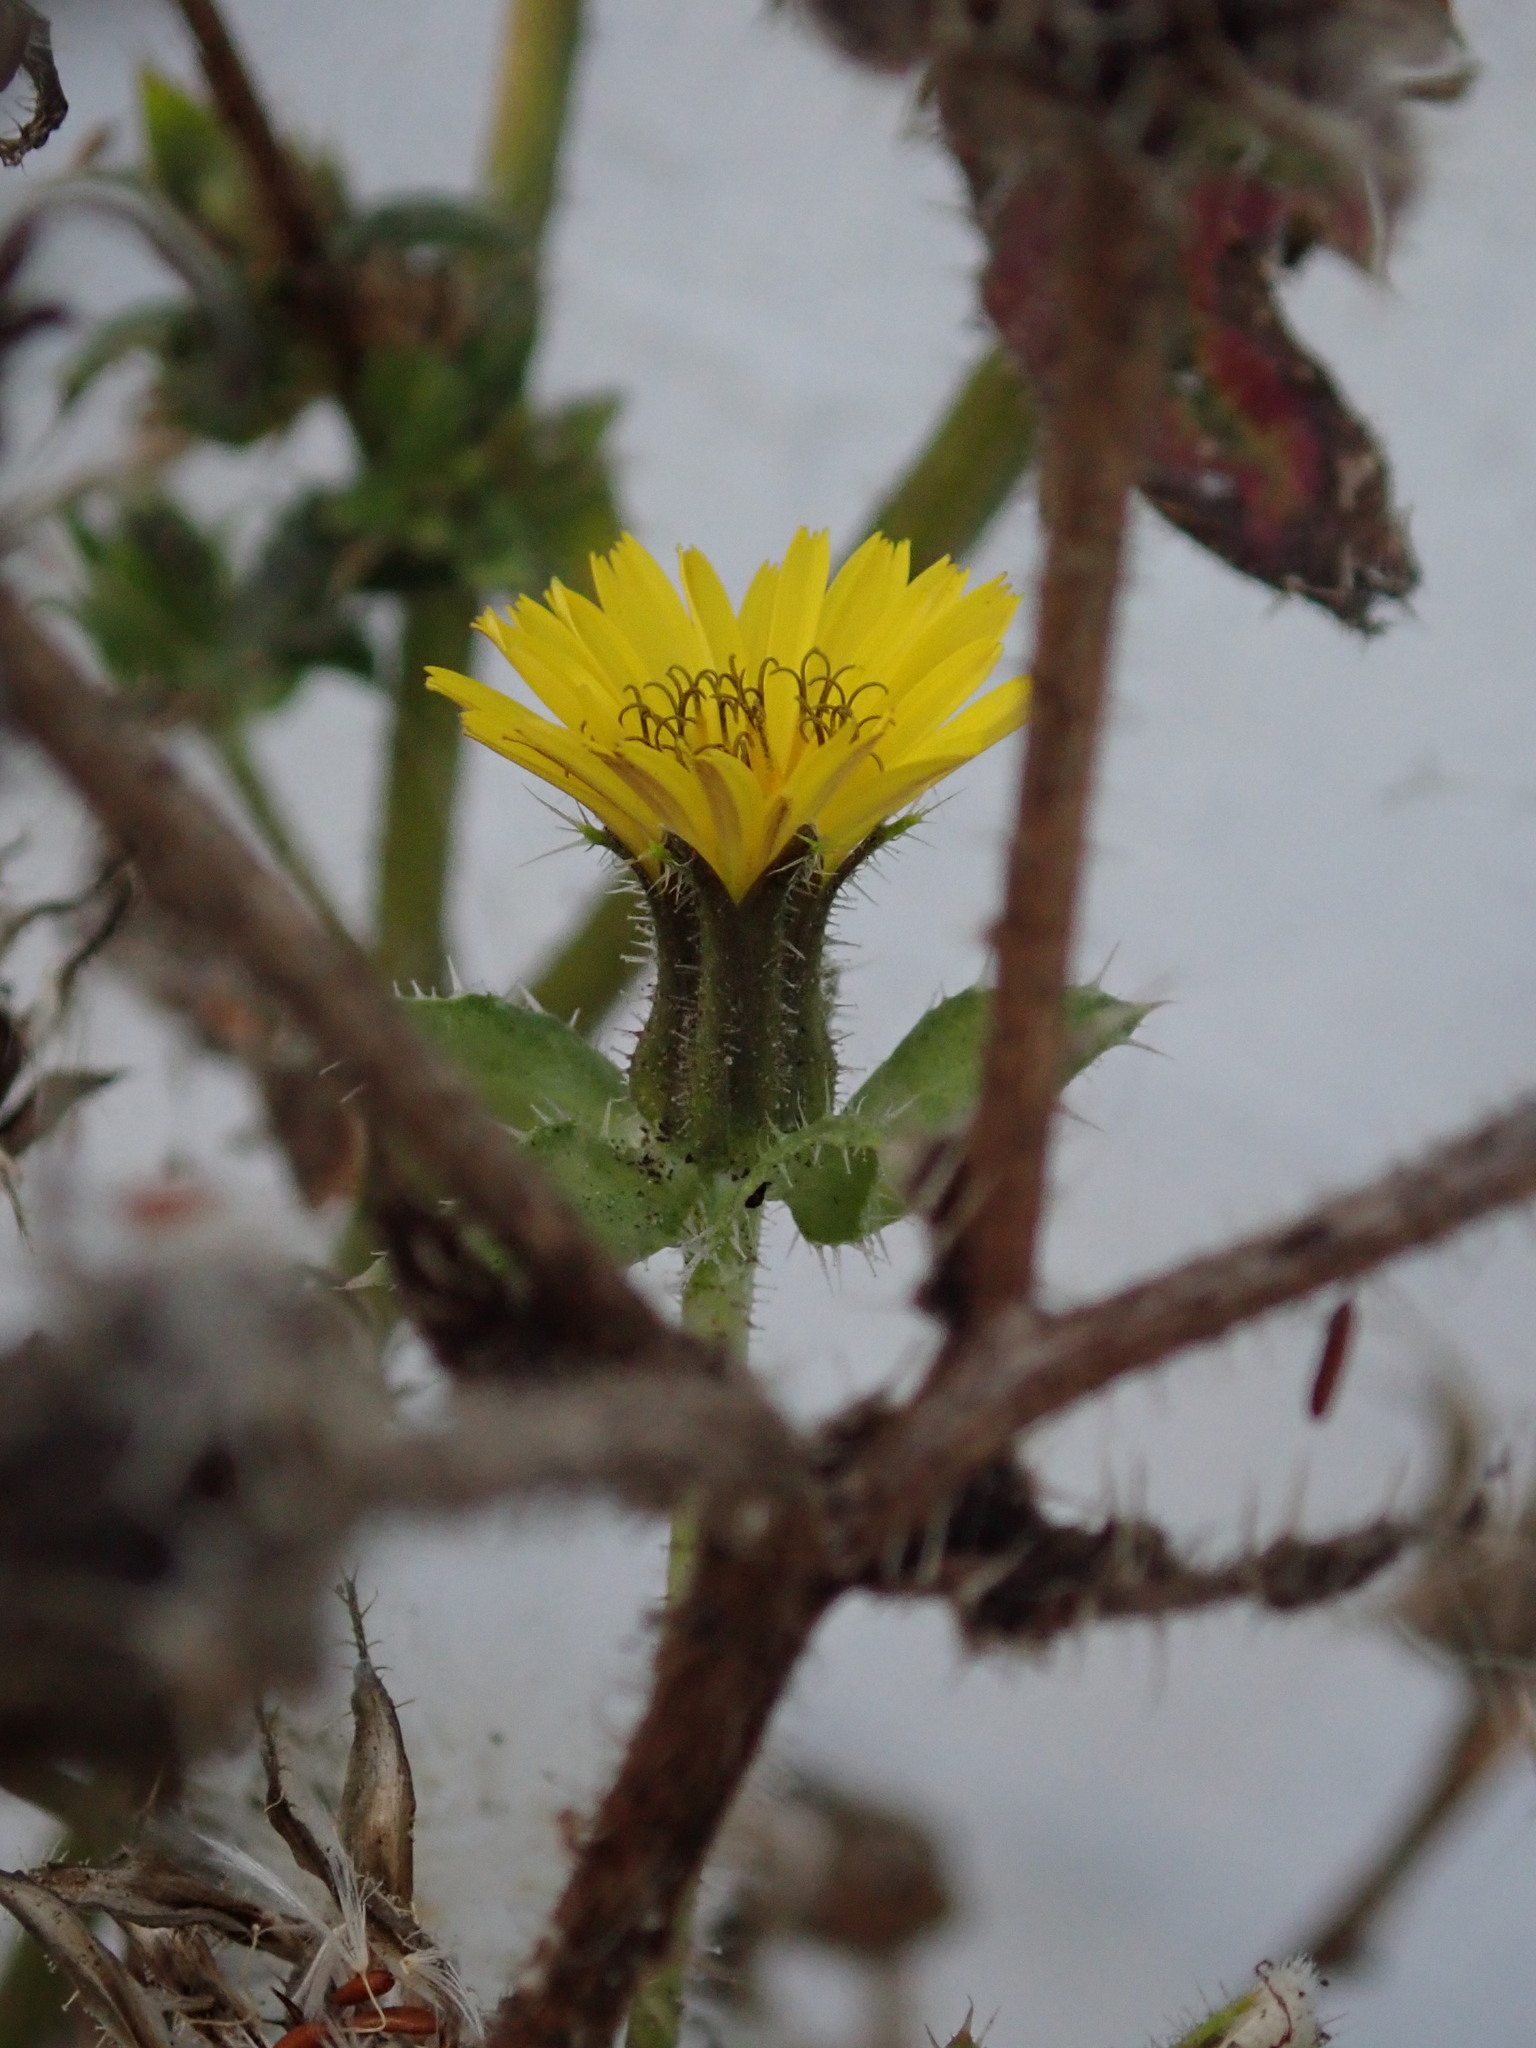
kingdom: Plantae
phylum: Tracheophyta
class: Magnoliopsida
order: Asterales
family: Asteraceae
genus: Helminthotheca
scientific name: Helminthotheca echioides
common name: Ox-tongue
